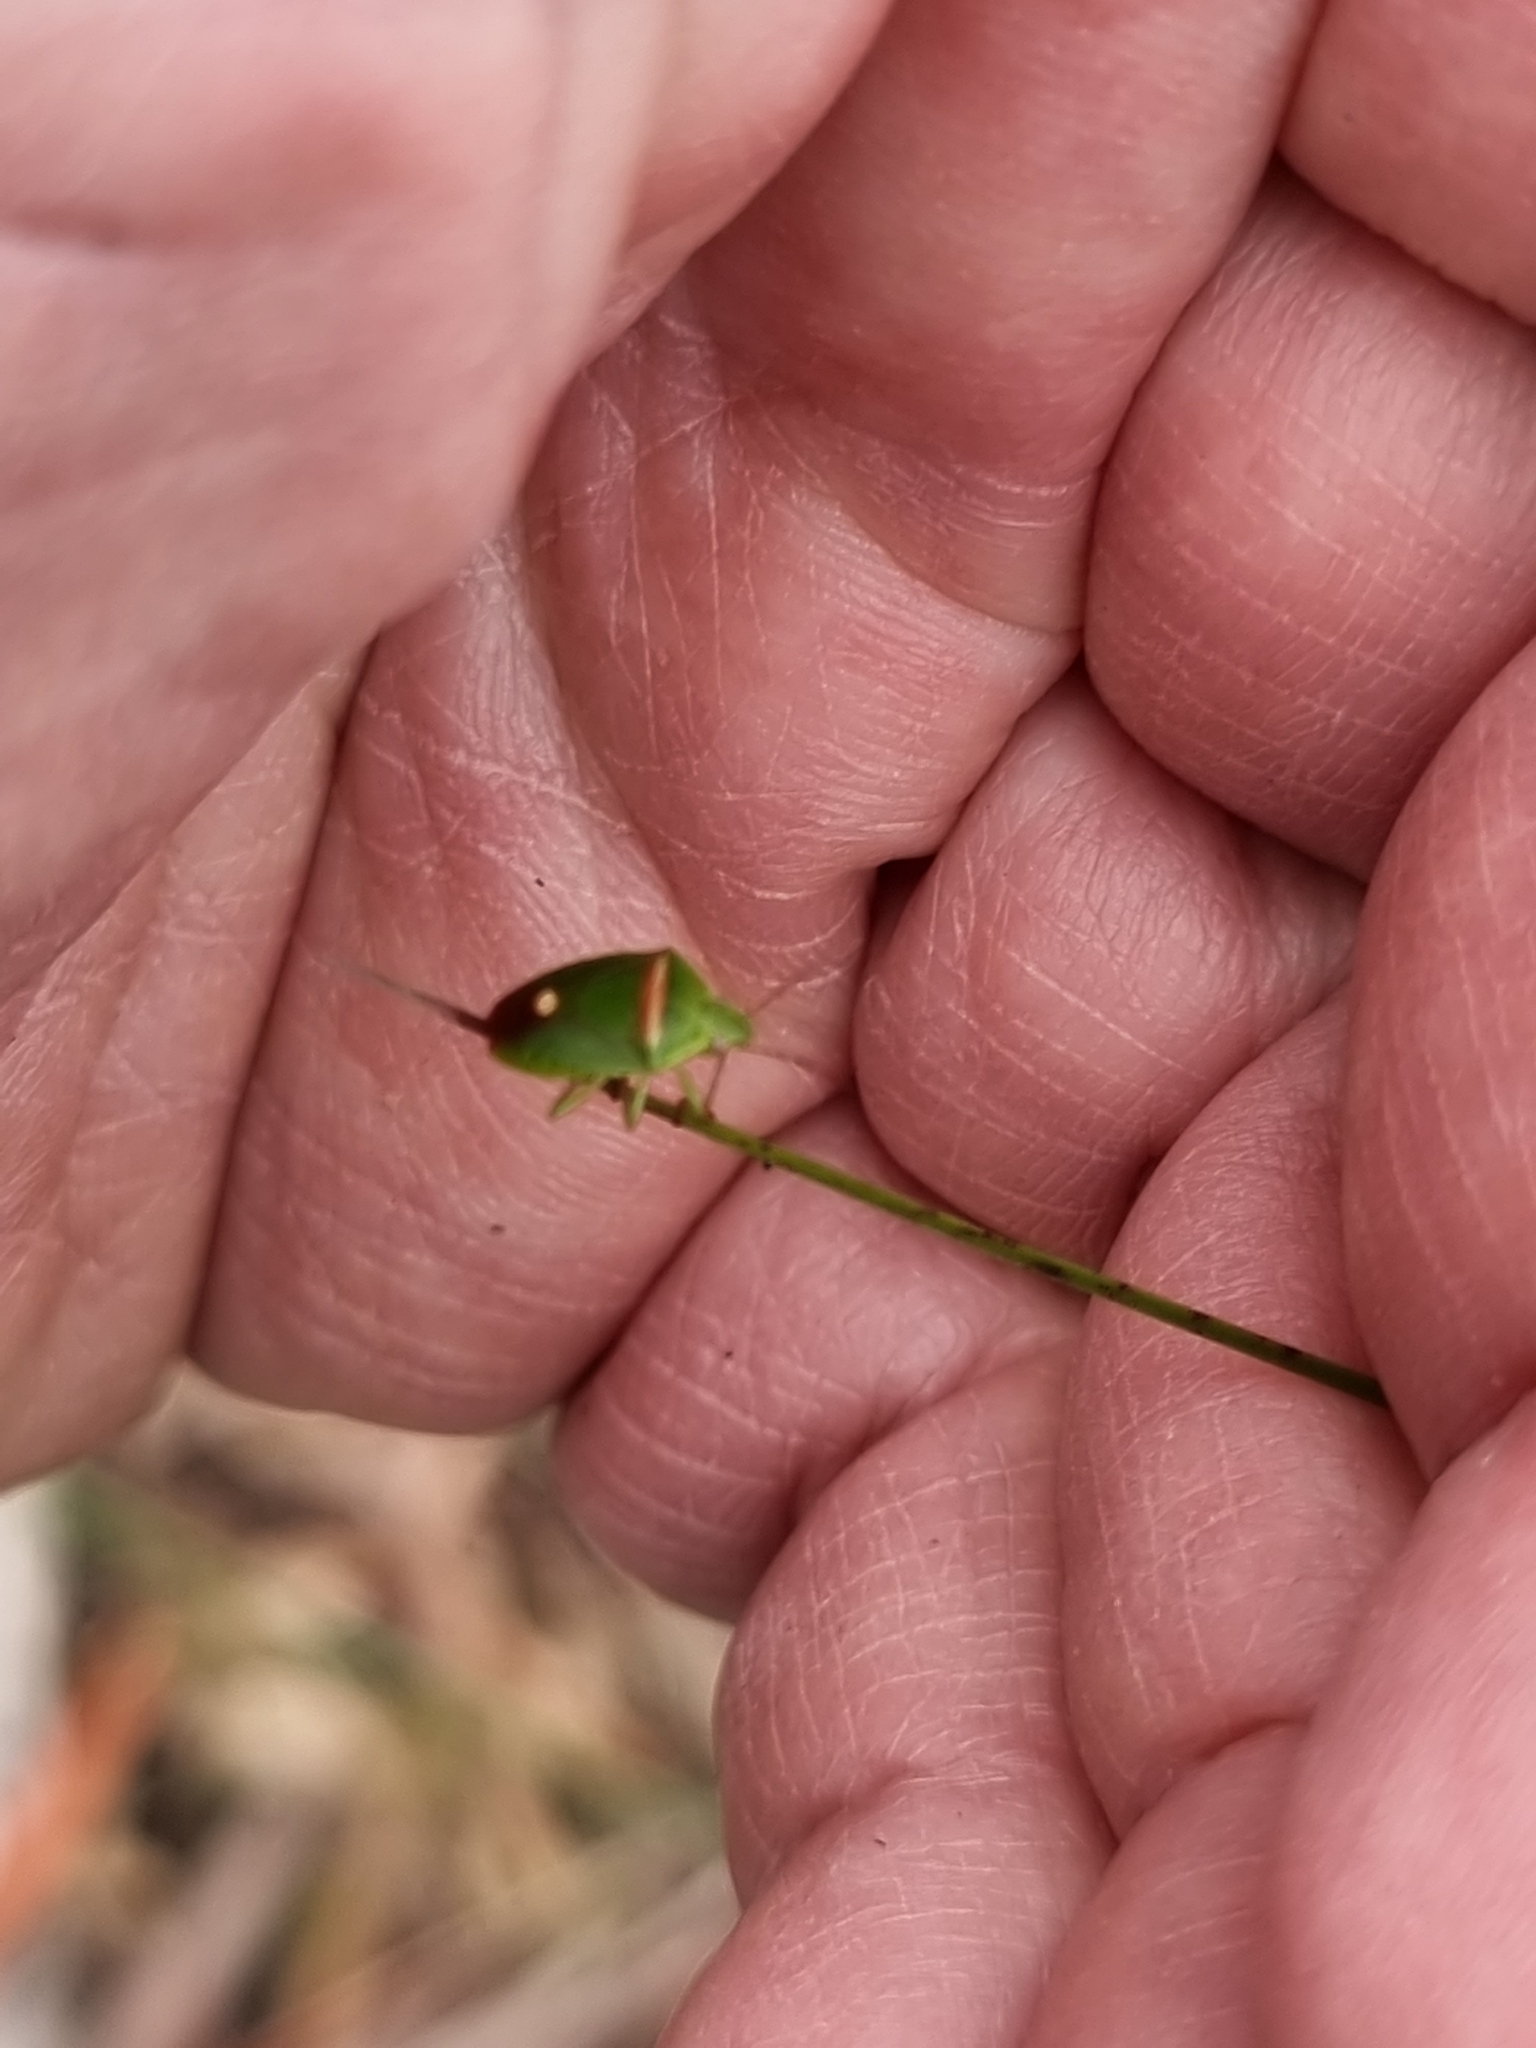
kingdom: Animalia
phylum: Arthropoda
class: Insecta
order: Hemiptera
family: Pentatomidae
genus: Ocirrhoe
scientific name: Ocirrhoe
